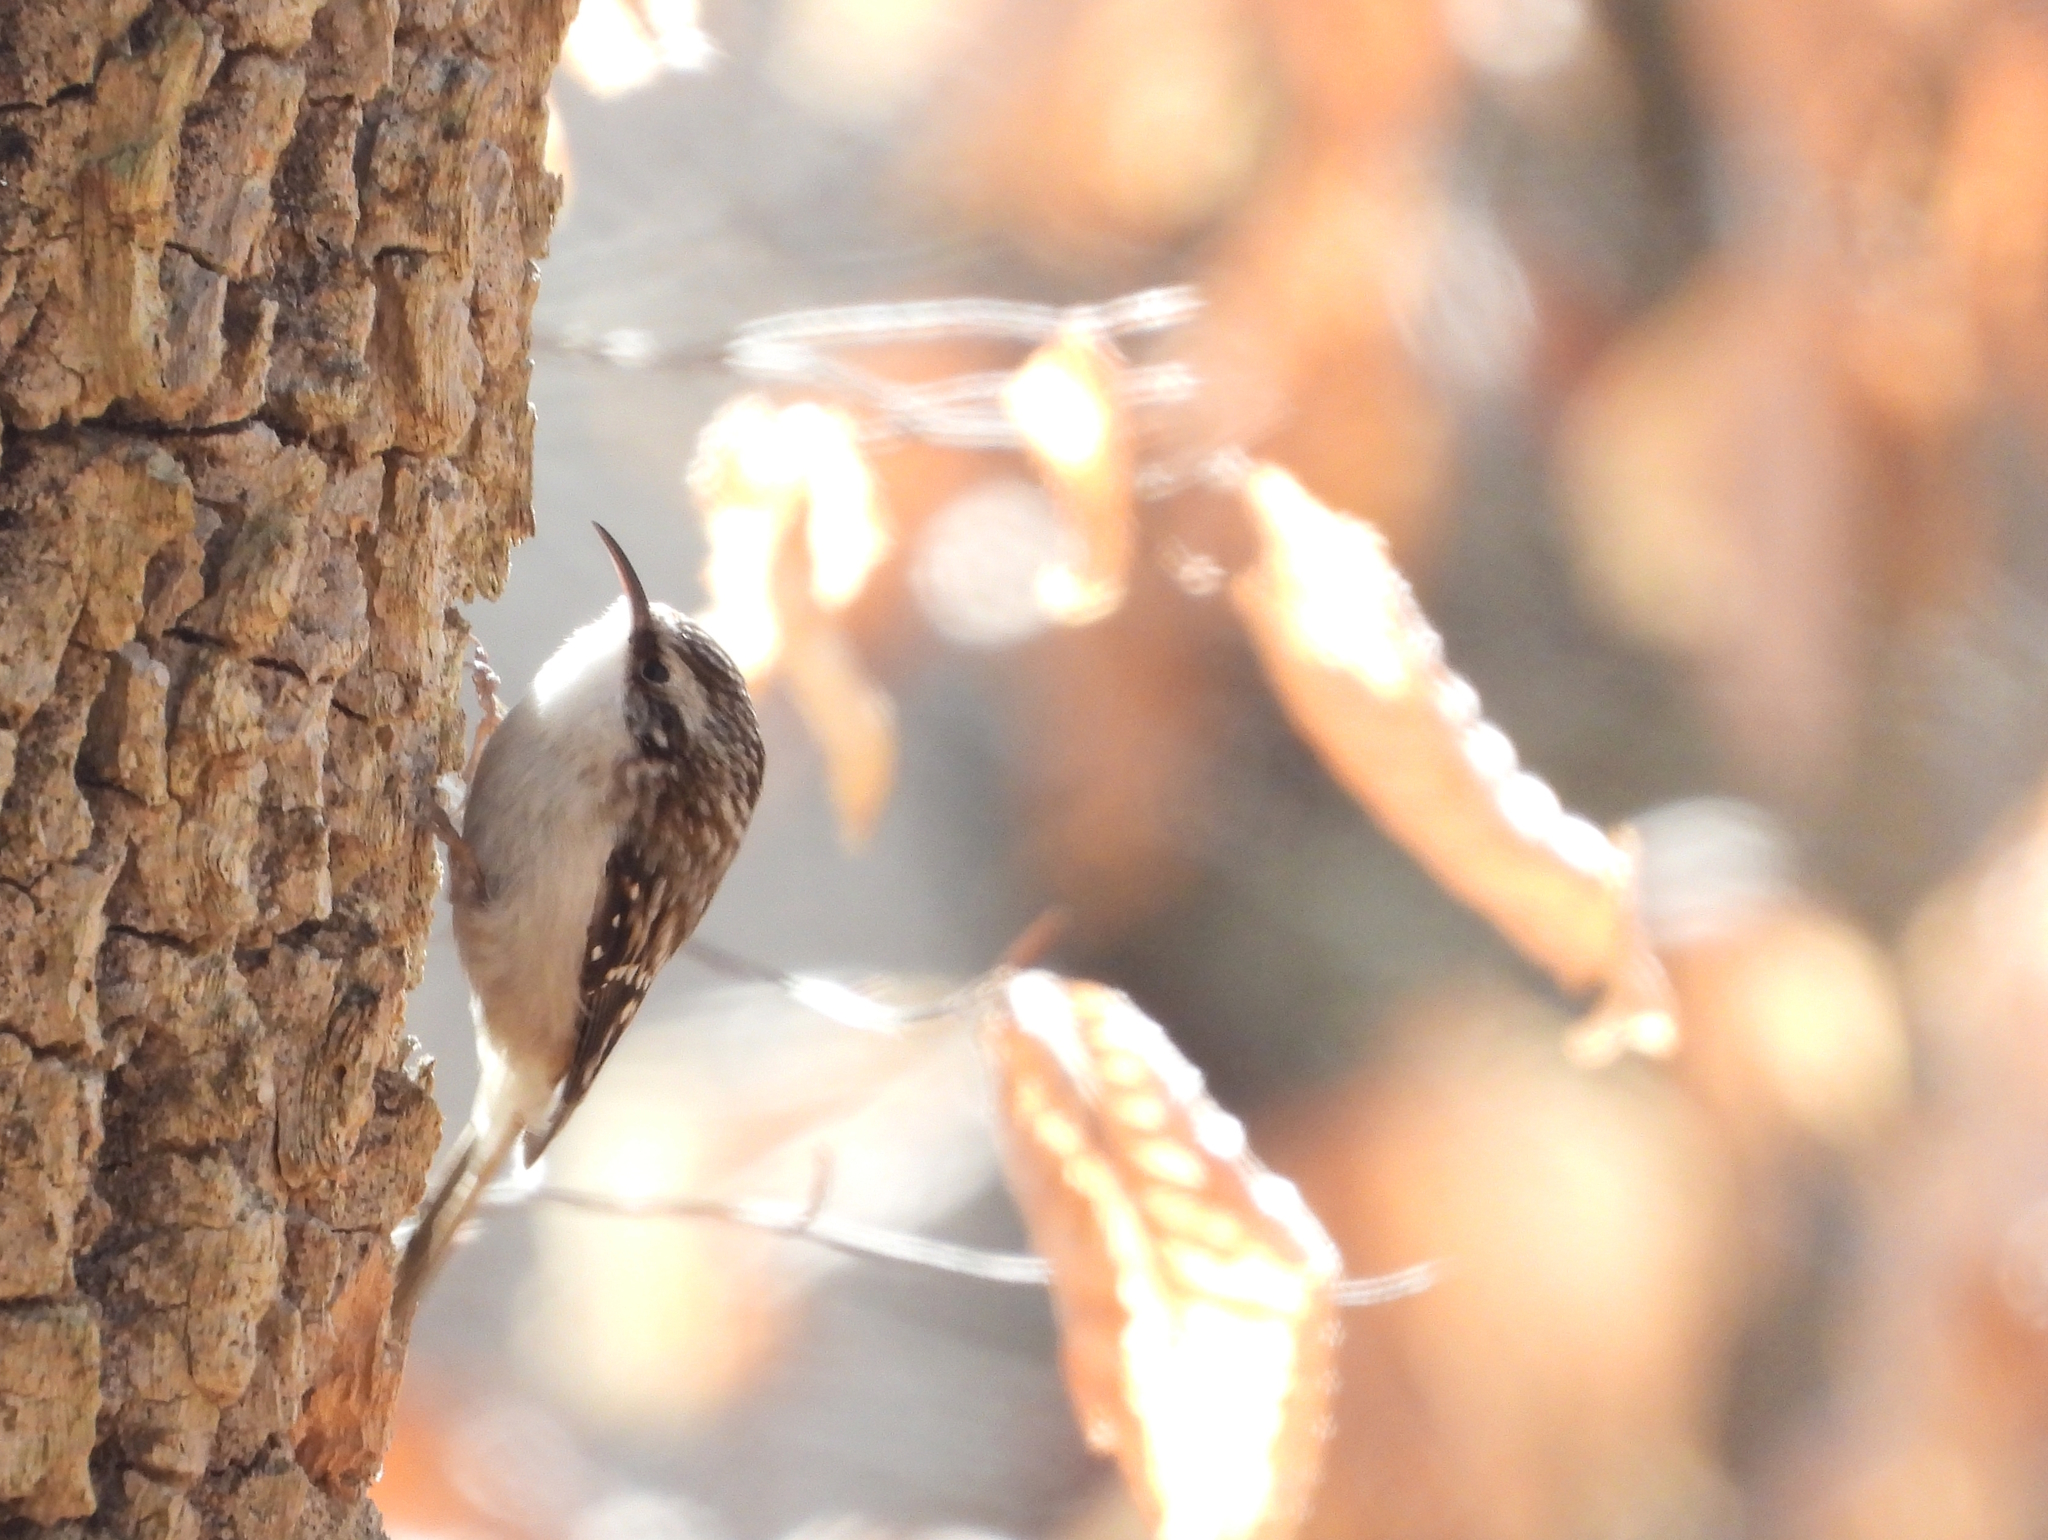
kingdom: Animalia
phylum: Chordata
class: Aves
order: Passeriformes
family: Certhiidae
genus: Certhia
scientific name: Certhia americana
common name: Brown creeper
